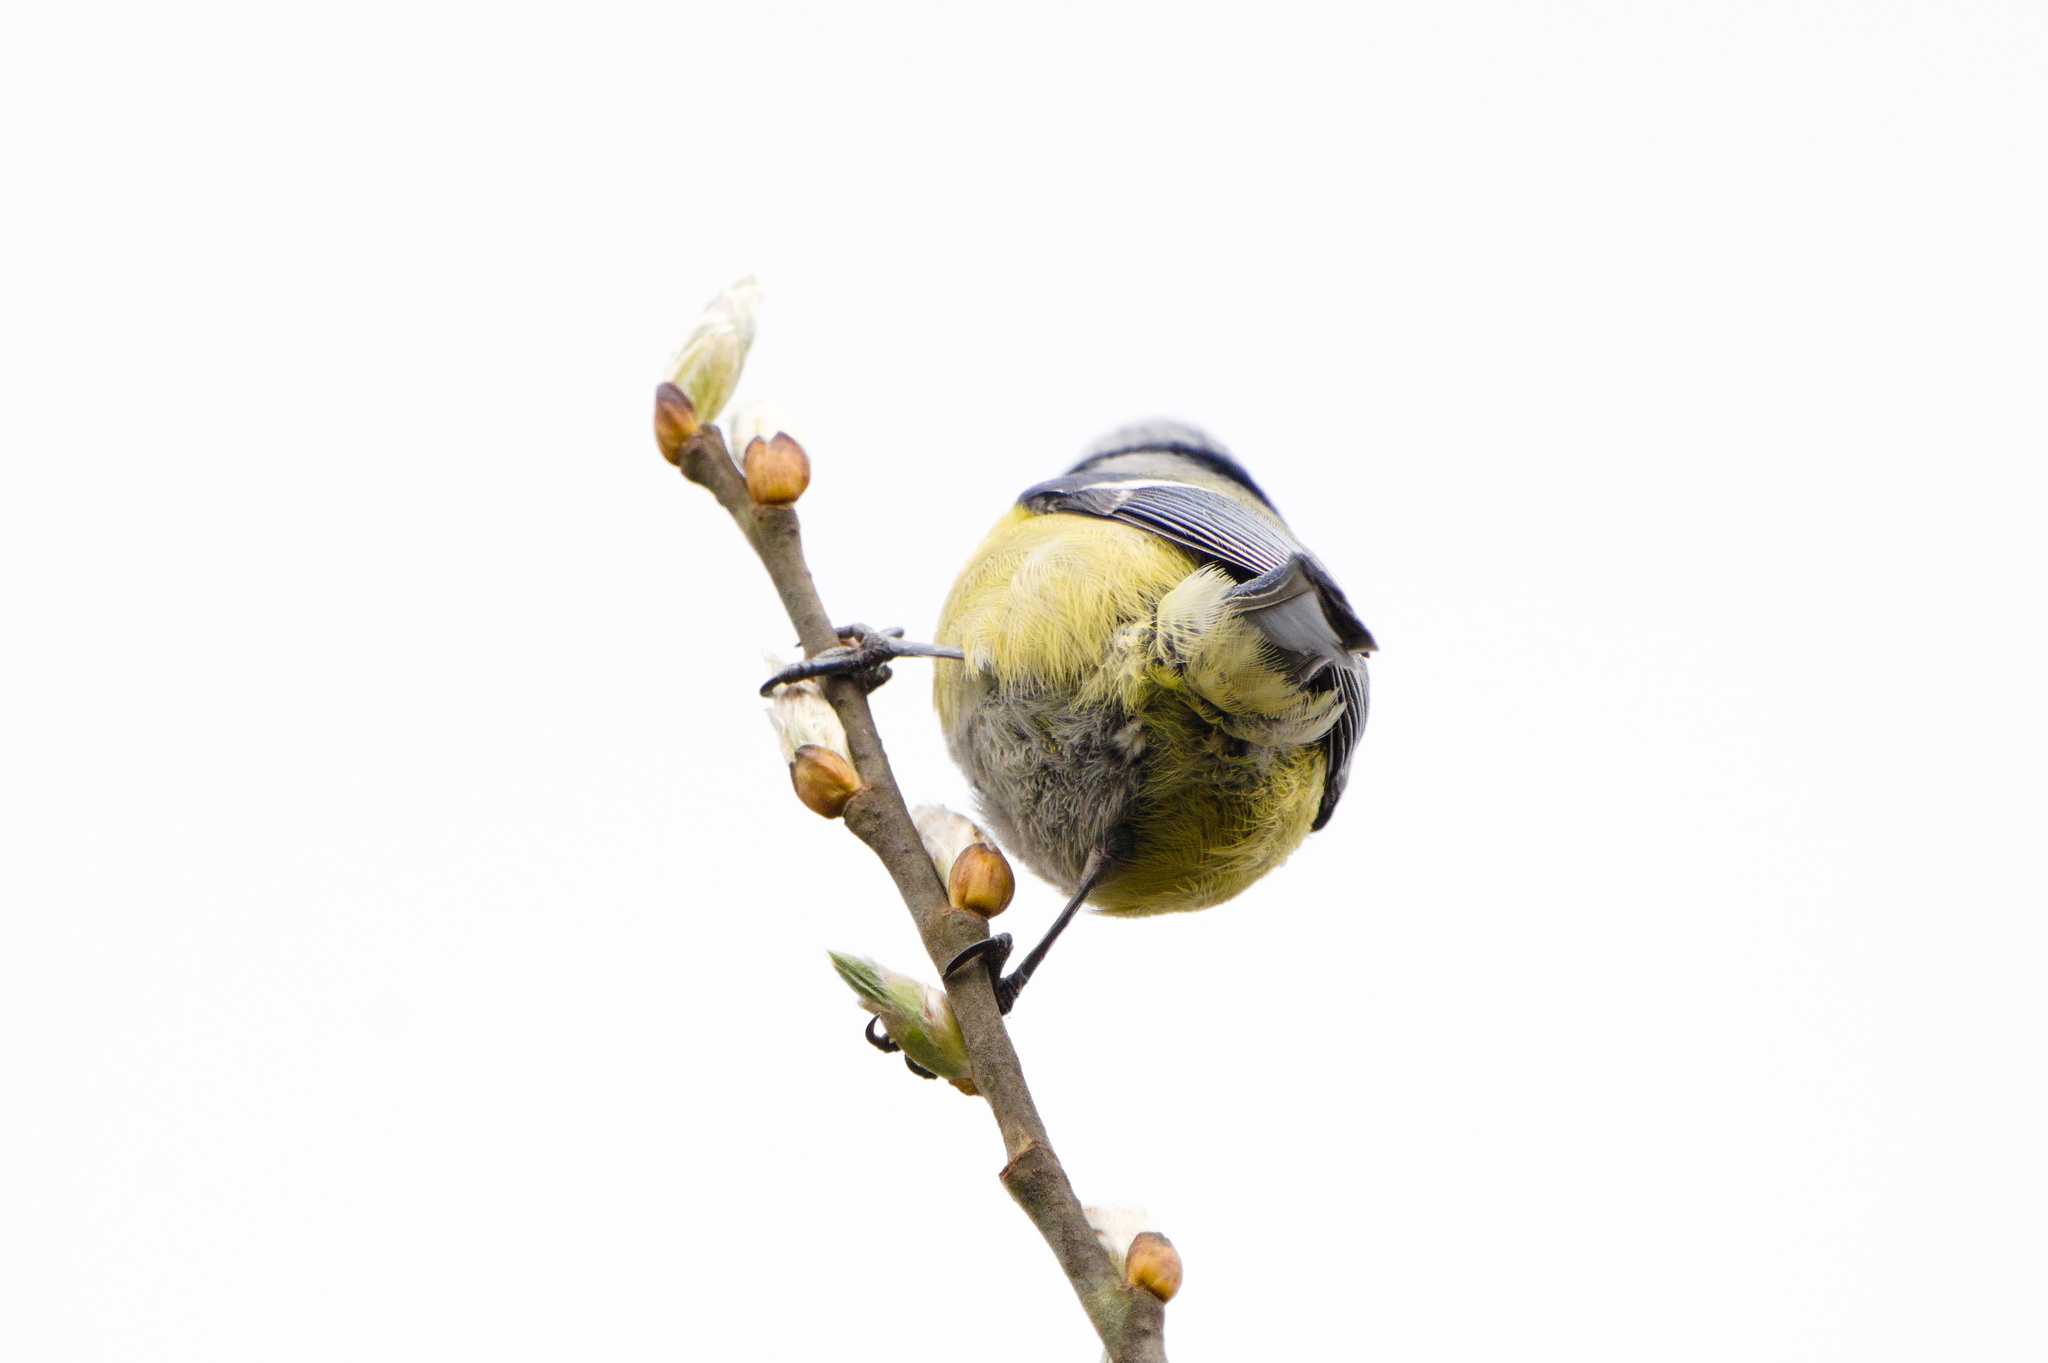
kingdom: Animalia
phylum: Chordata
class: Aves
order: Passeriformes
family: Paridae
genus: Cyanistes
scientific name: Cyanistes caeruleus
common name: Eurasian blue tit
